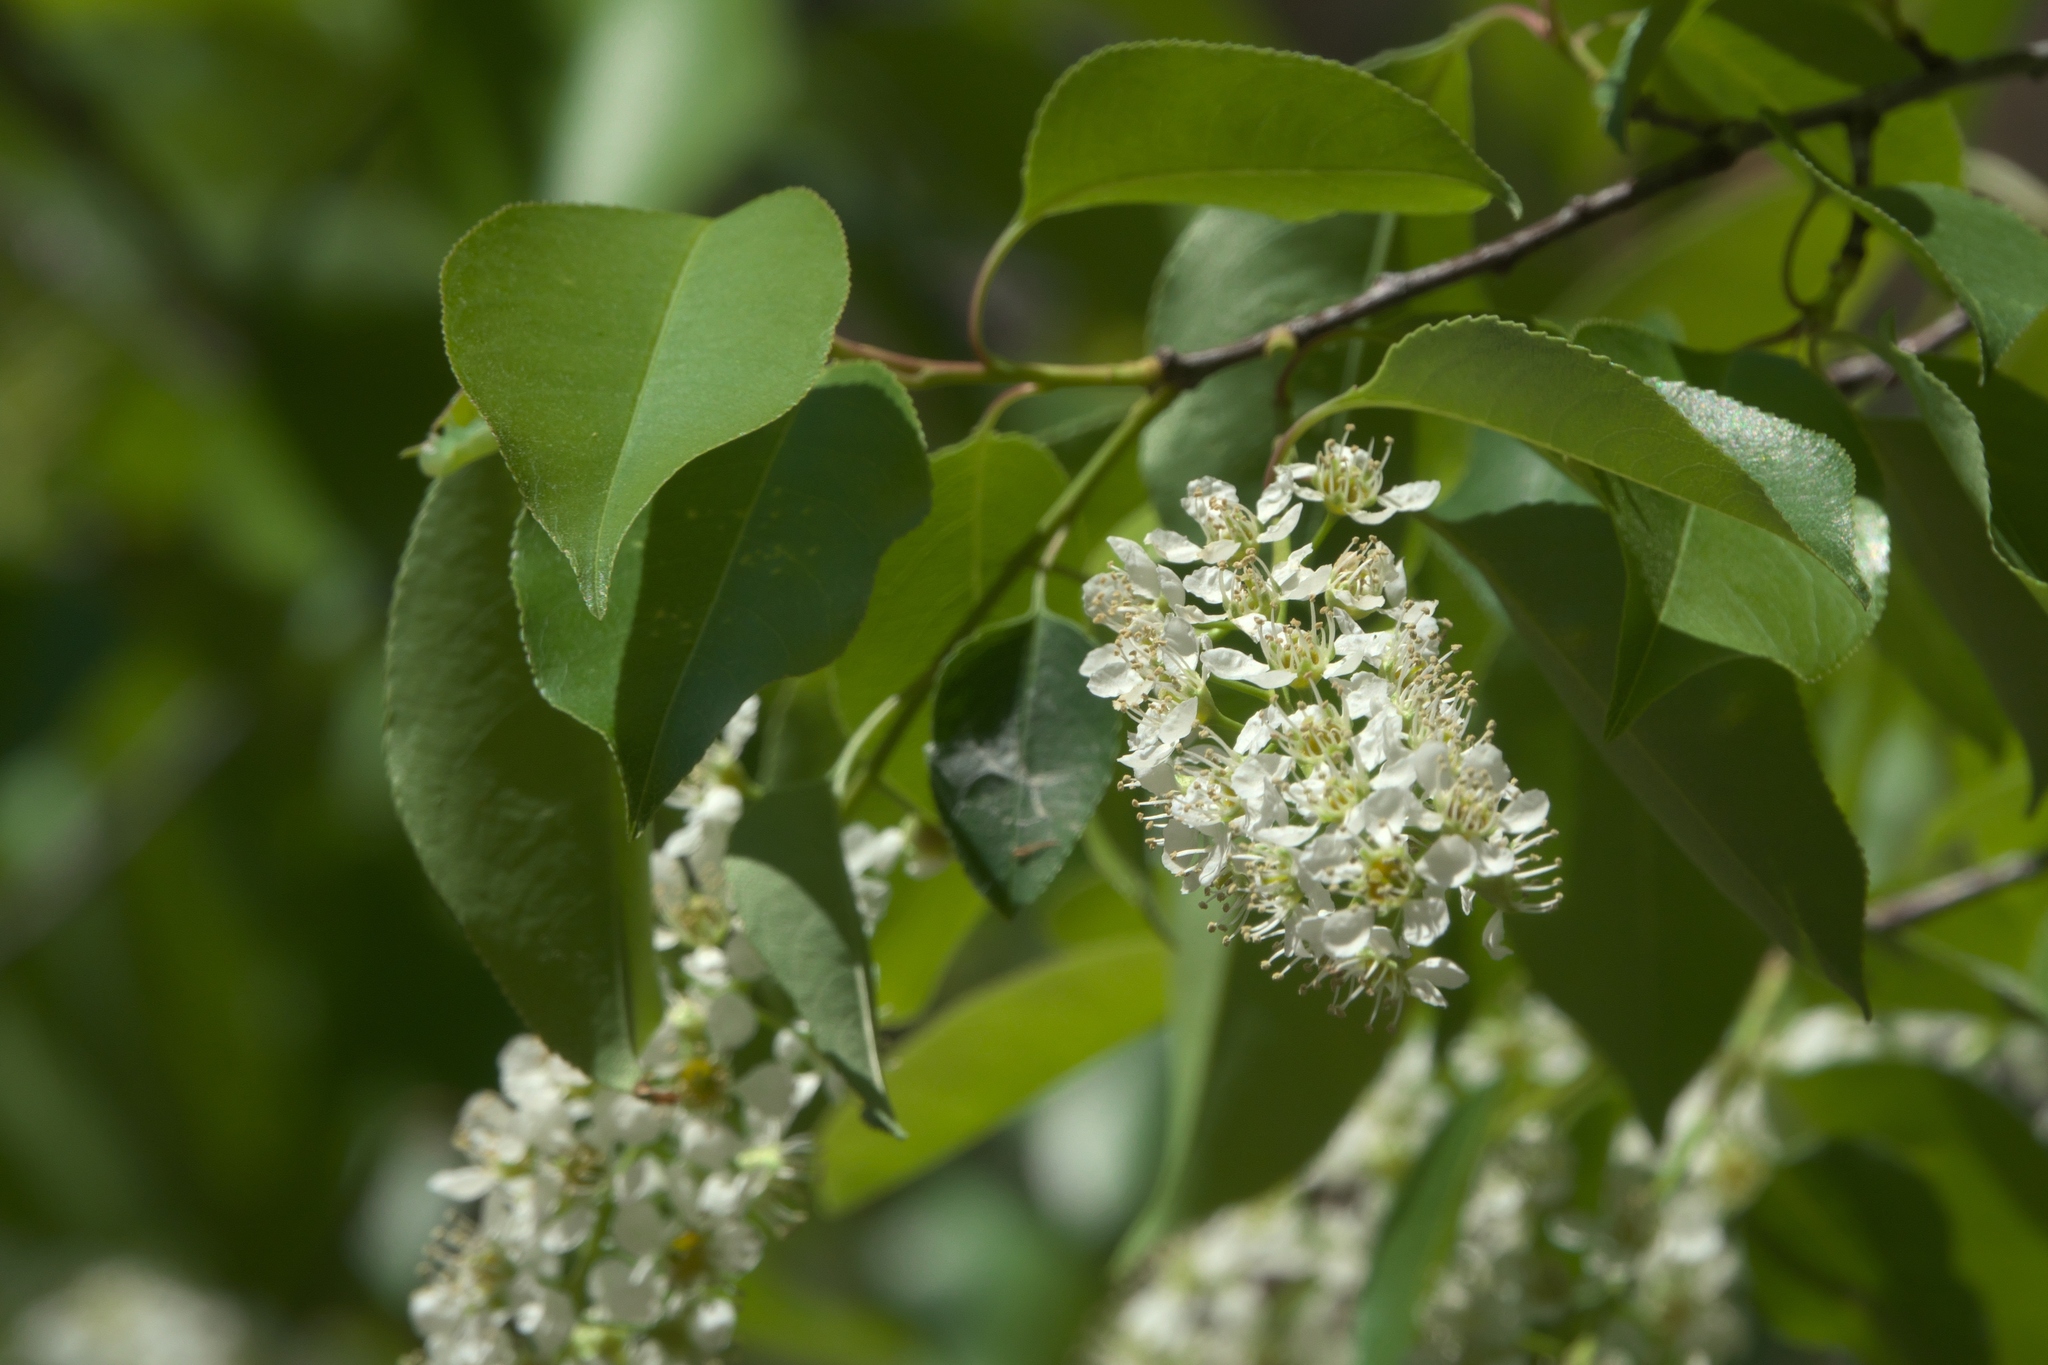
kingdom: Plantae
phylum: Tracheophyta
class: Magnoliopsida
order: Rosales
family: Rosaceae
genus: Prunus
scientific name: Prunus serotina
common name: Black cherry
